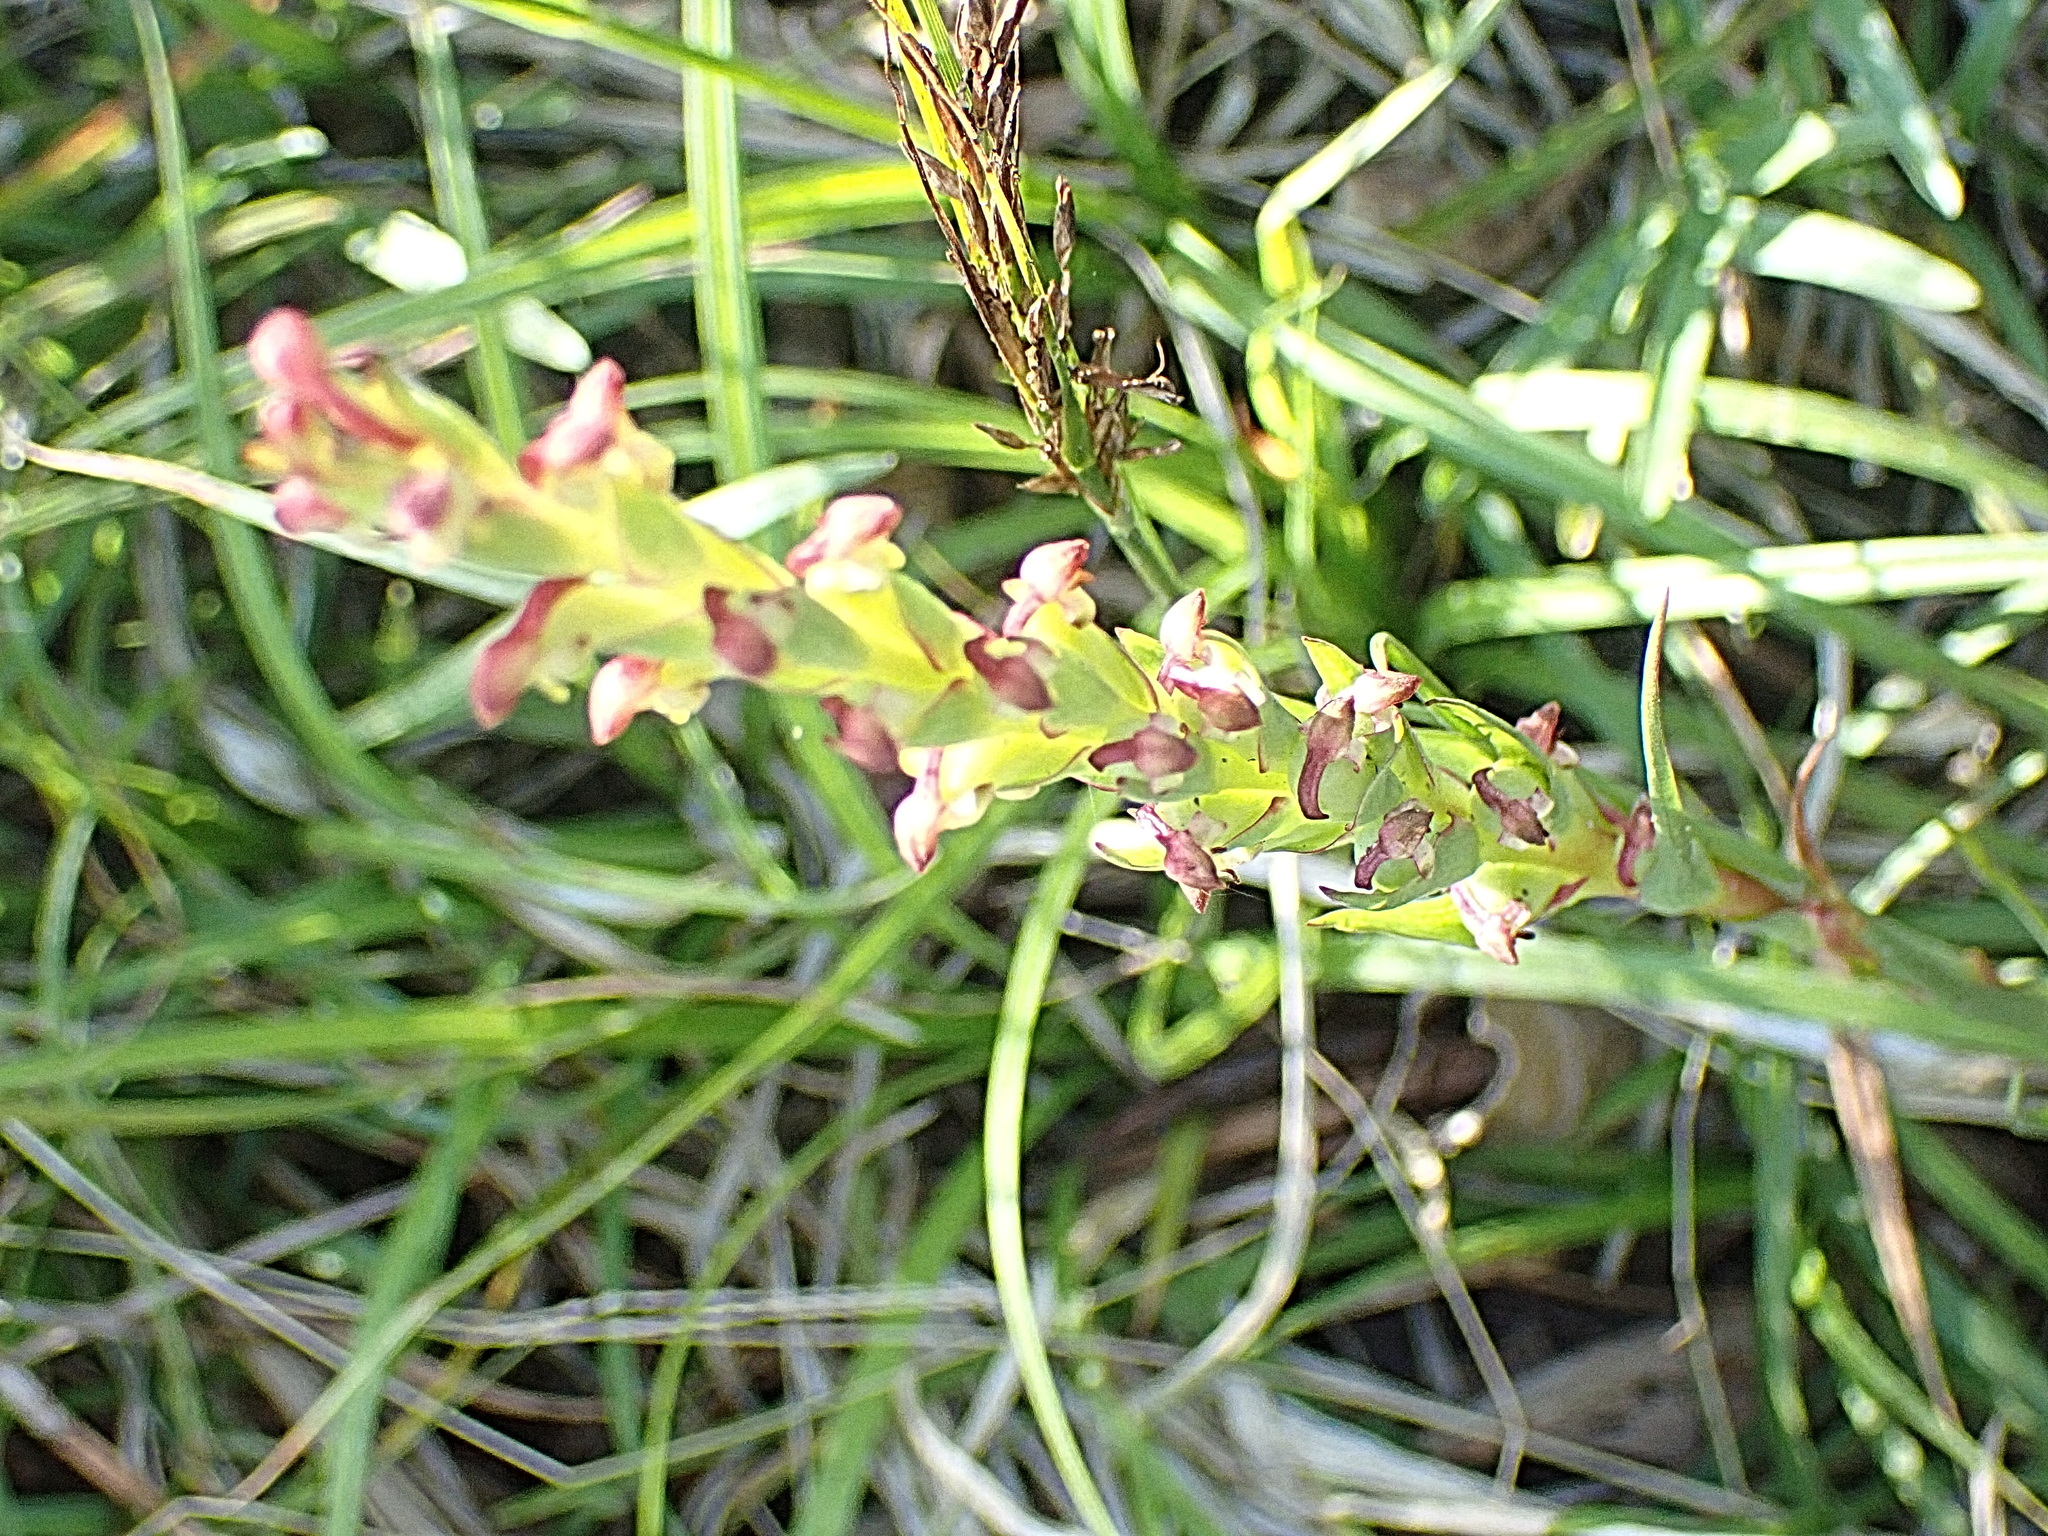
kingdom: Plantae
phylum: Tracheophyta
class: Liliopsida
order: Asparagales
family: Orchidaceae
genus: Disa
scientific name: Disa bracteata
